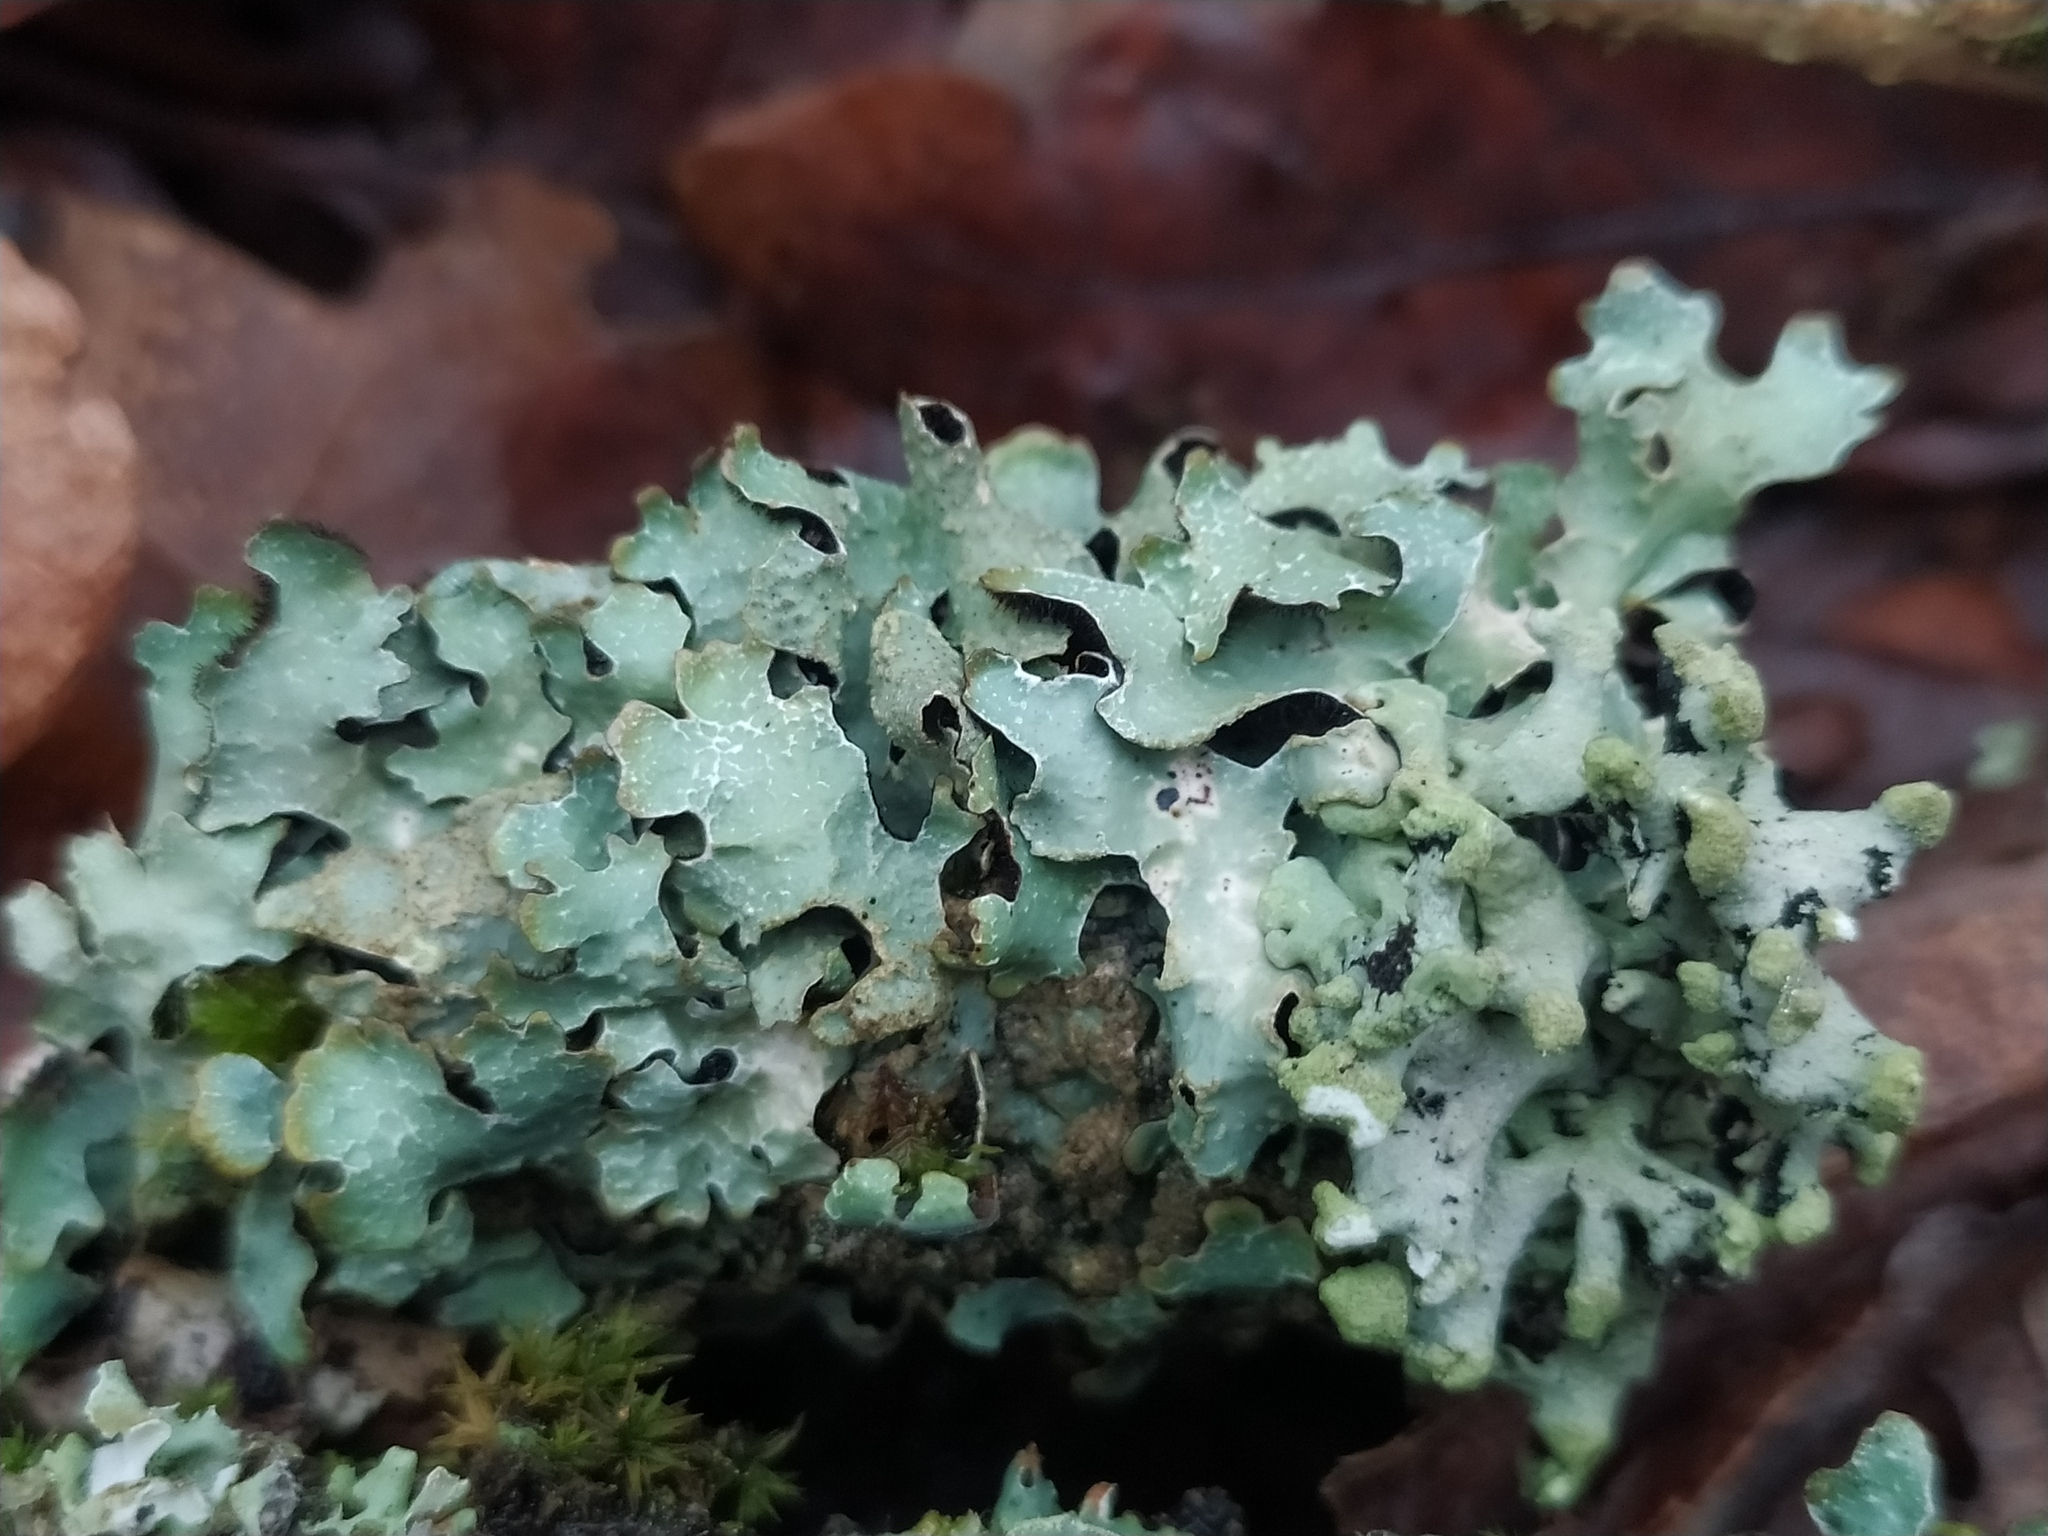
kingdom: Fungi
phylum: Ascomycota
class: Lecanoromycetes
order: Lecanorales
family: Parmeliaceae
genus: Parmelia
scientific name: Parmelia sulcata
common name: Netted shield lichen
